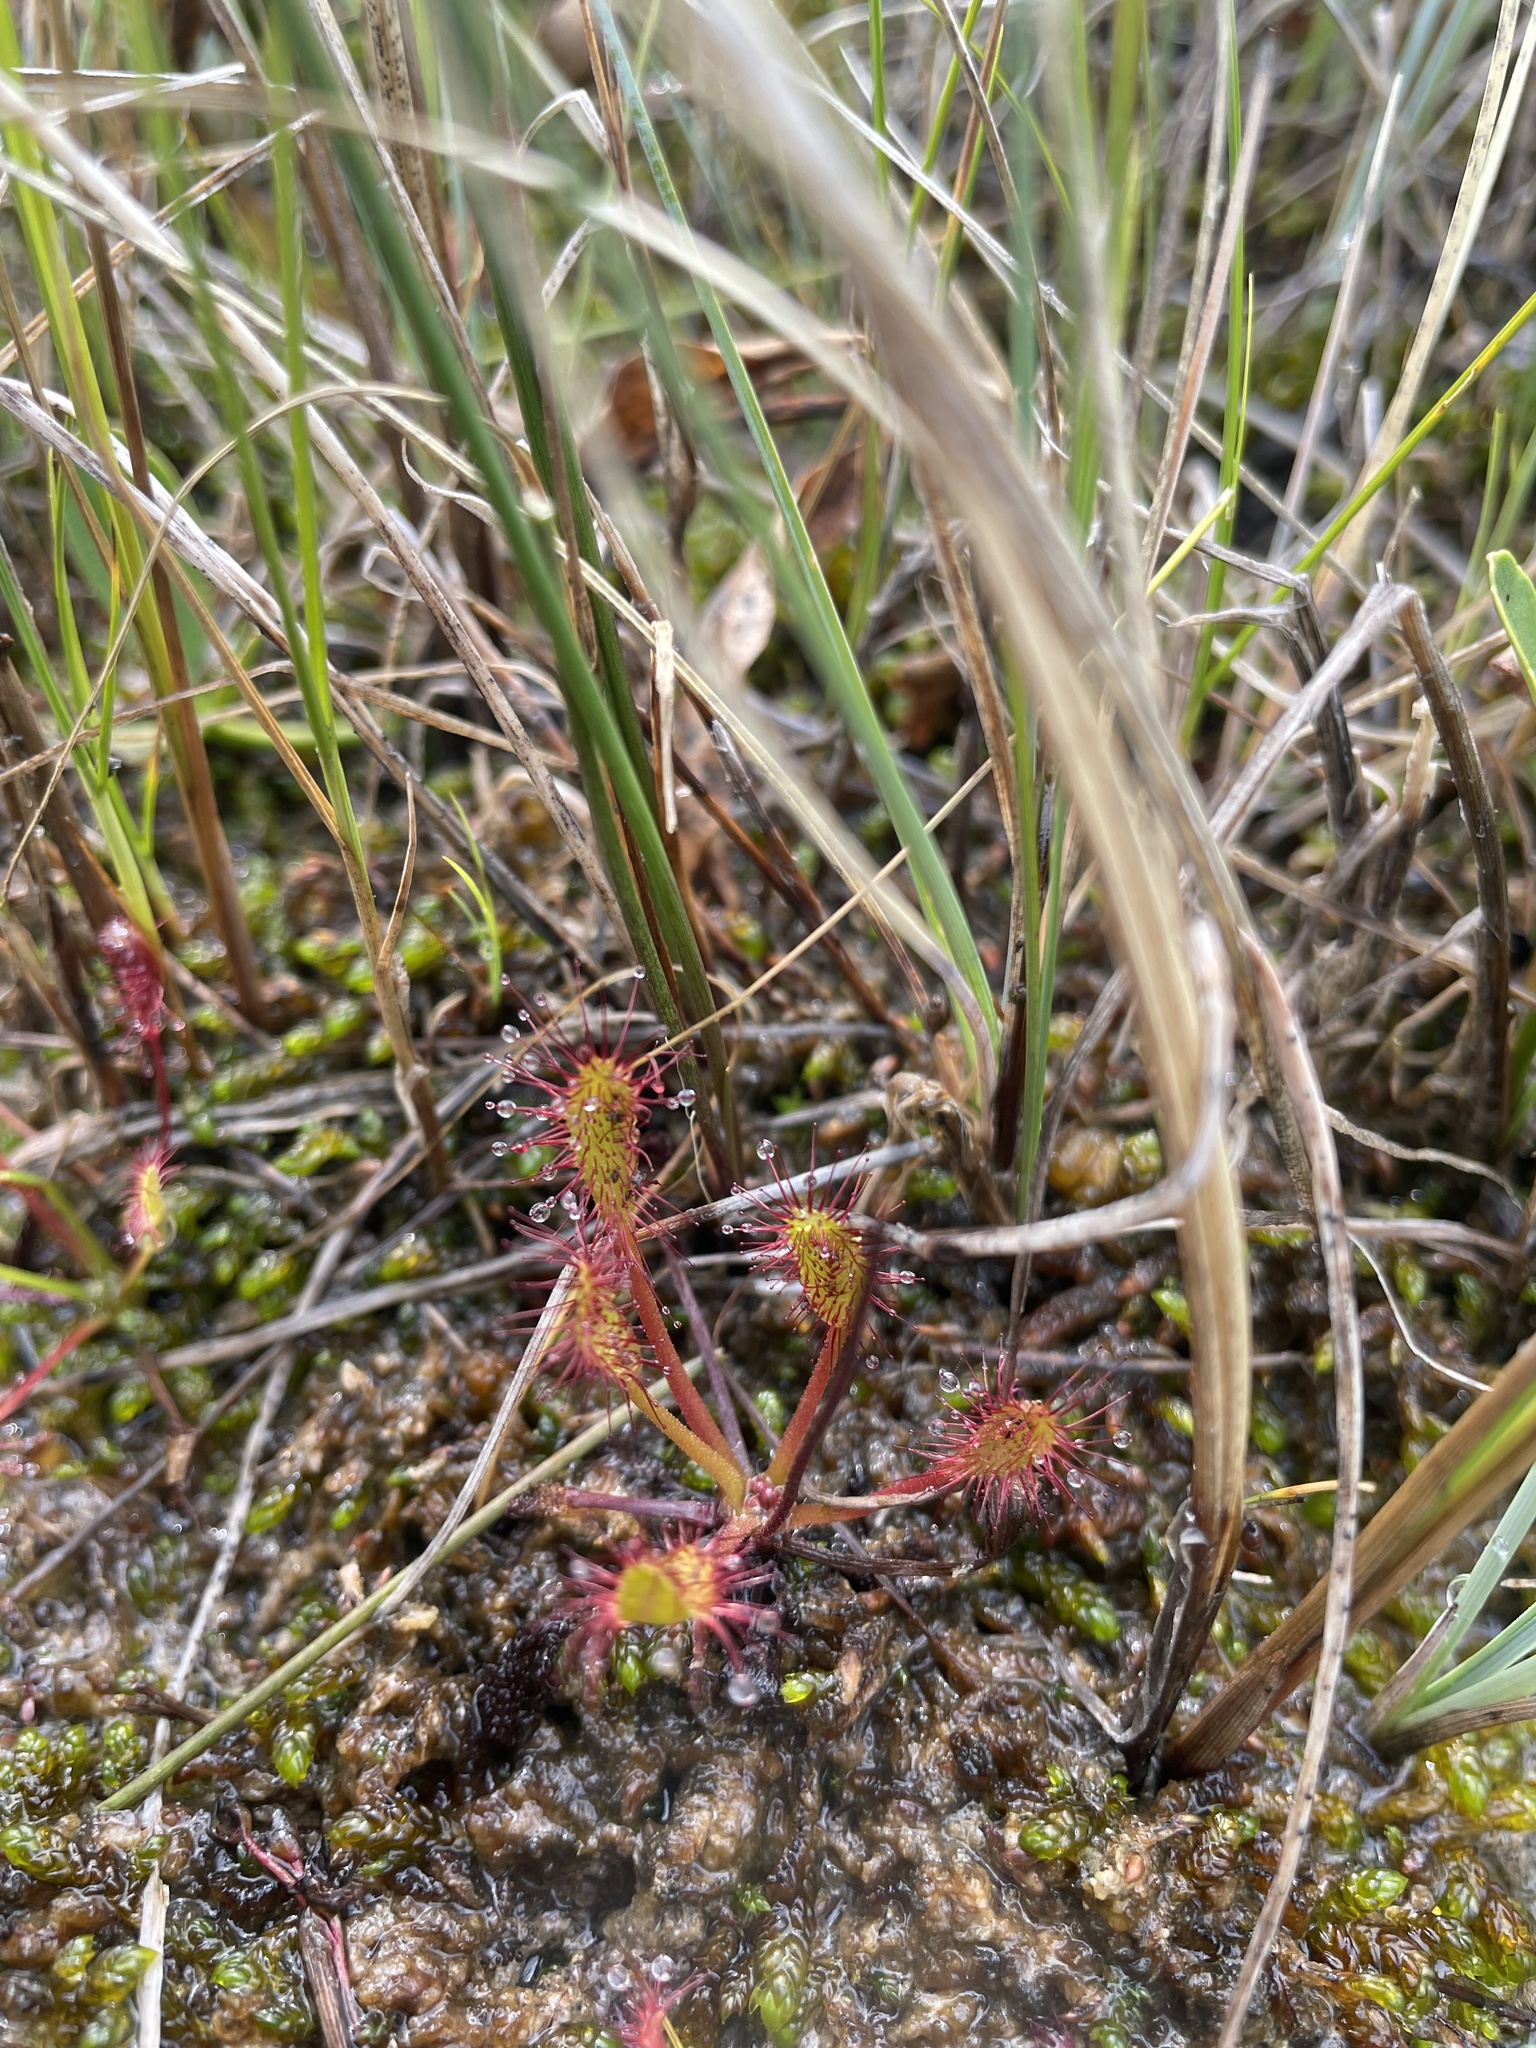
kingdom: Plantae
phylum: Tracheophyta
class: Magnoliopsida
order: Caryophyllales
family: Droseraceae
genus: Drosera
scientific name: Drosera anglica
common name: Great sundew
